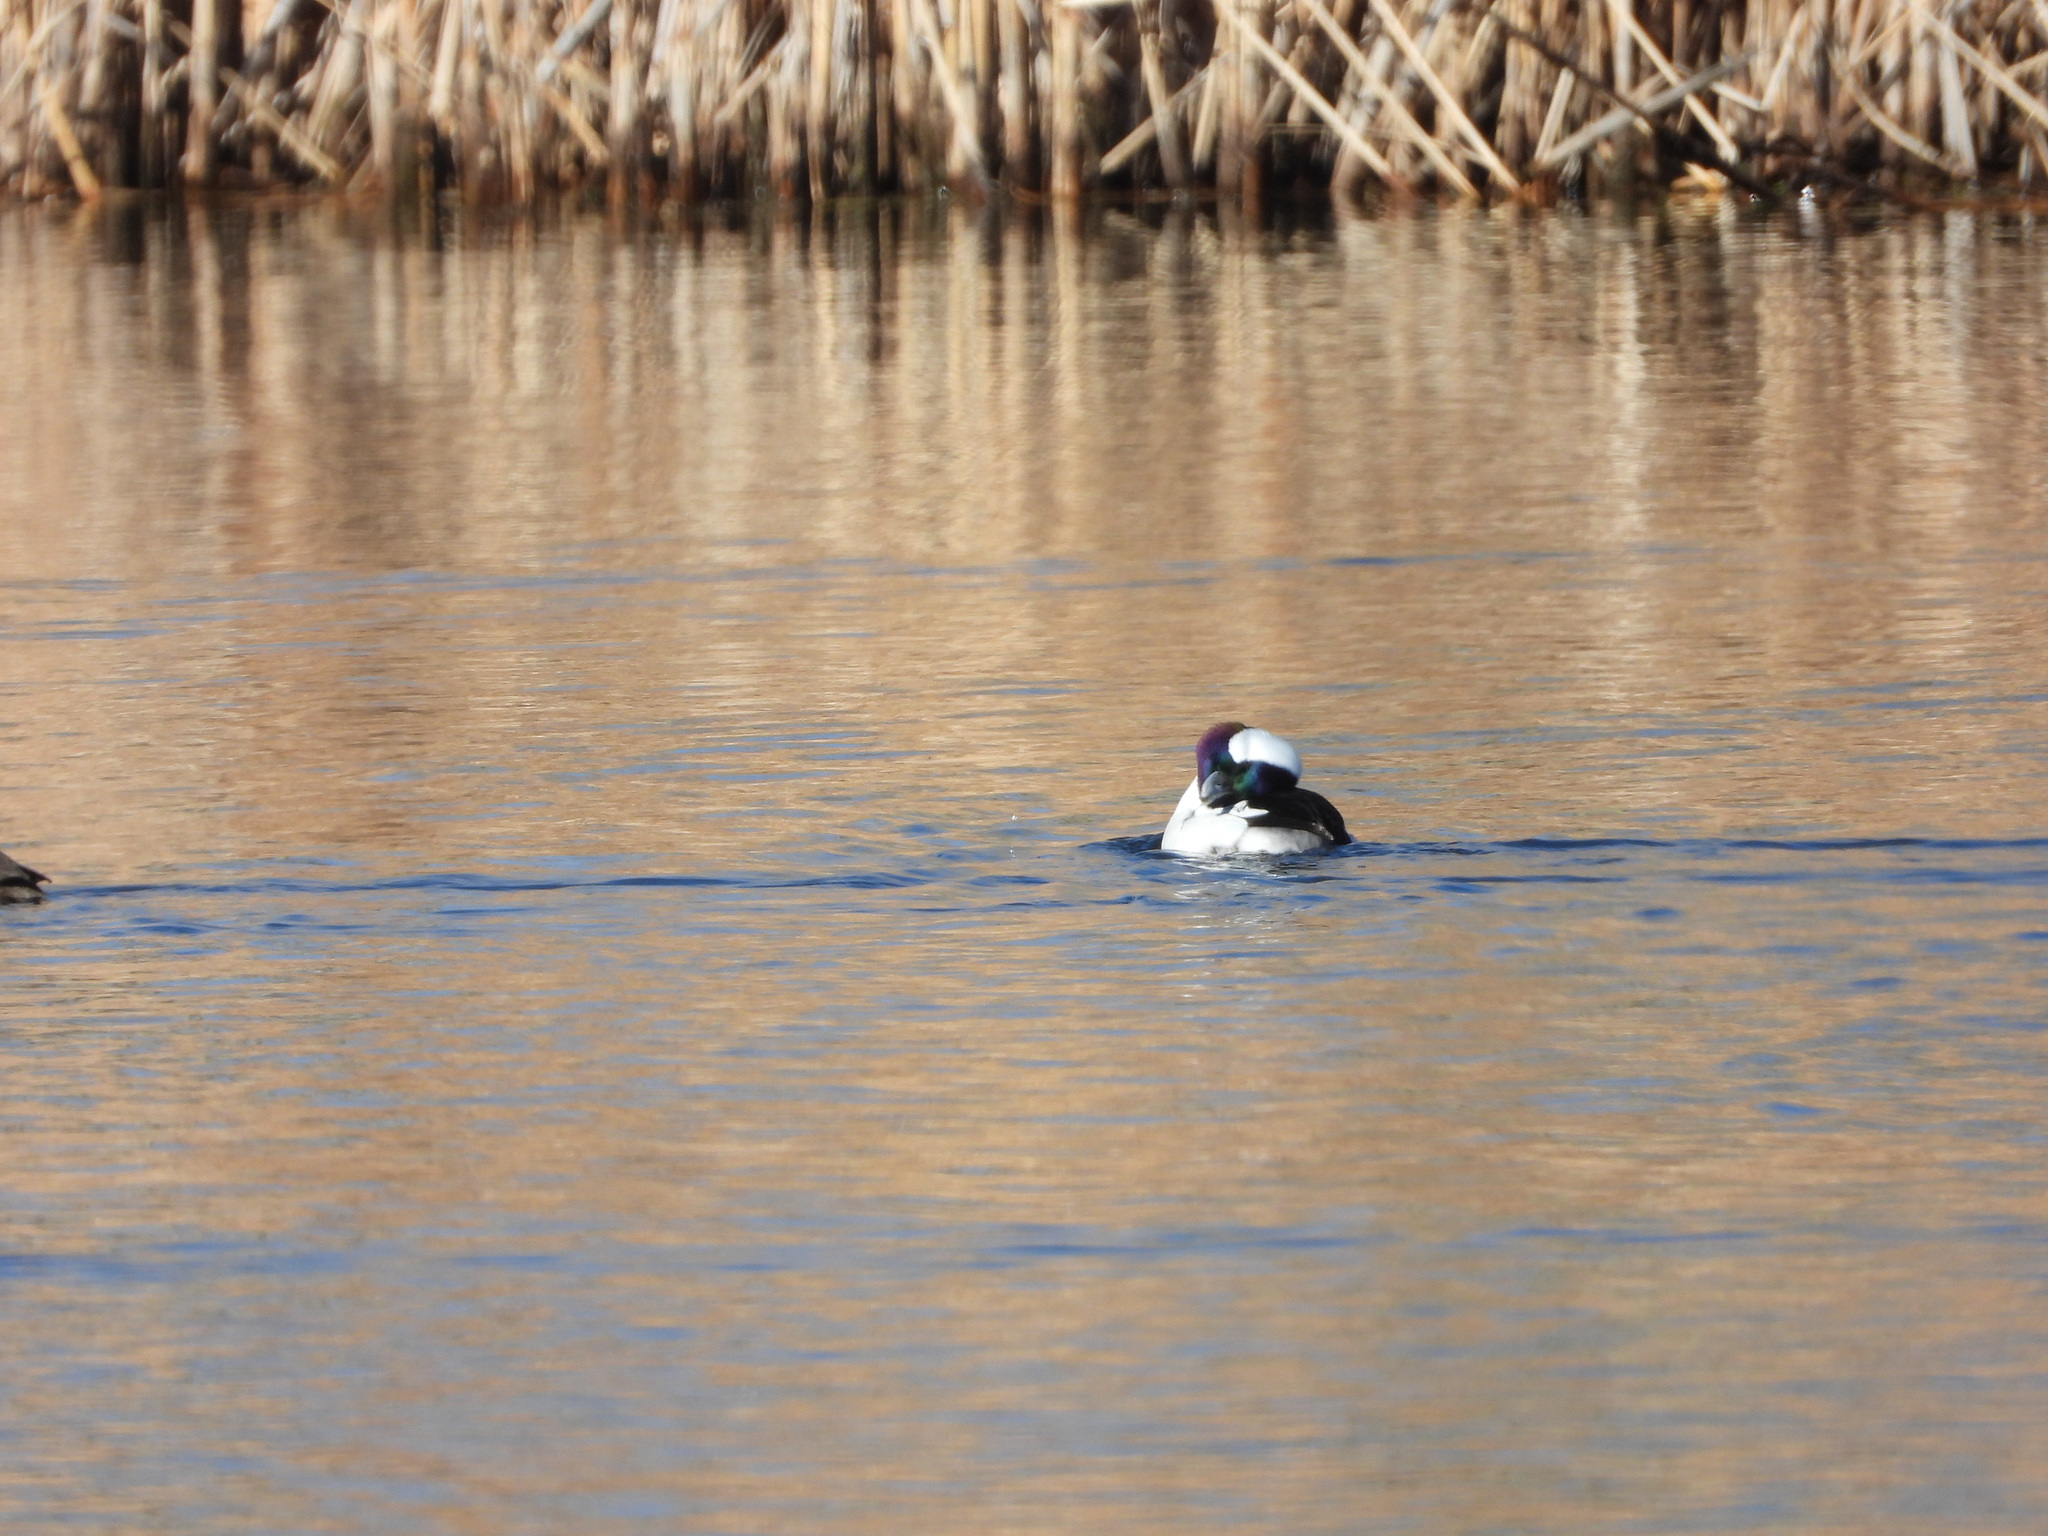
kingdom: Animalia
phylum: Chordata
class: Aves
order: Anseriformes
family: Anatidae
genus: Bucephala
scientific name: Bucephala albeola
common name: Bufflehead
